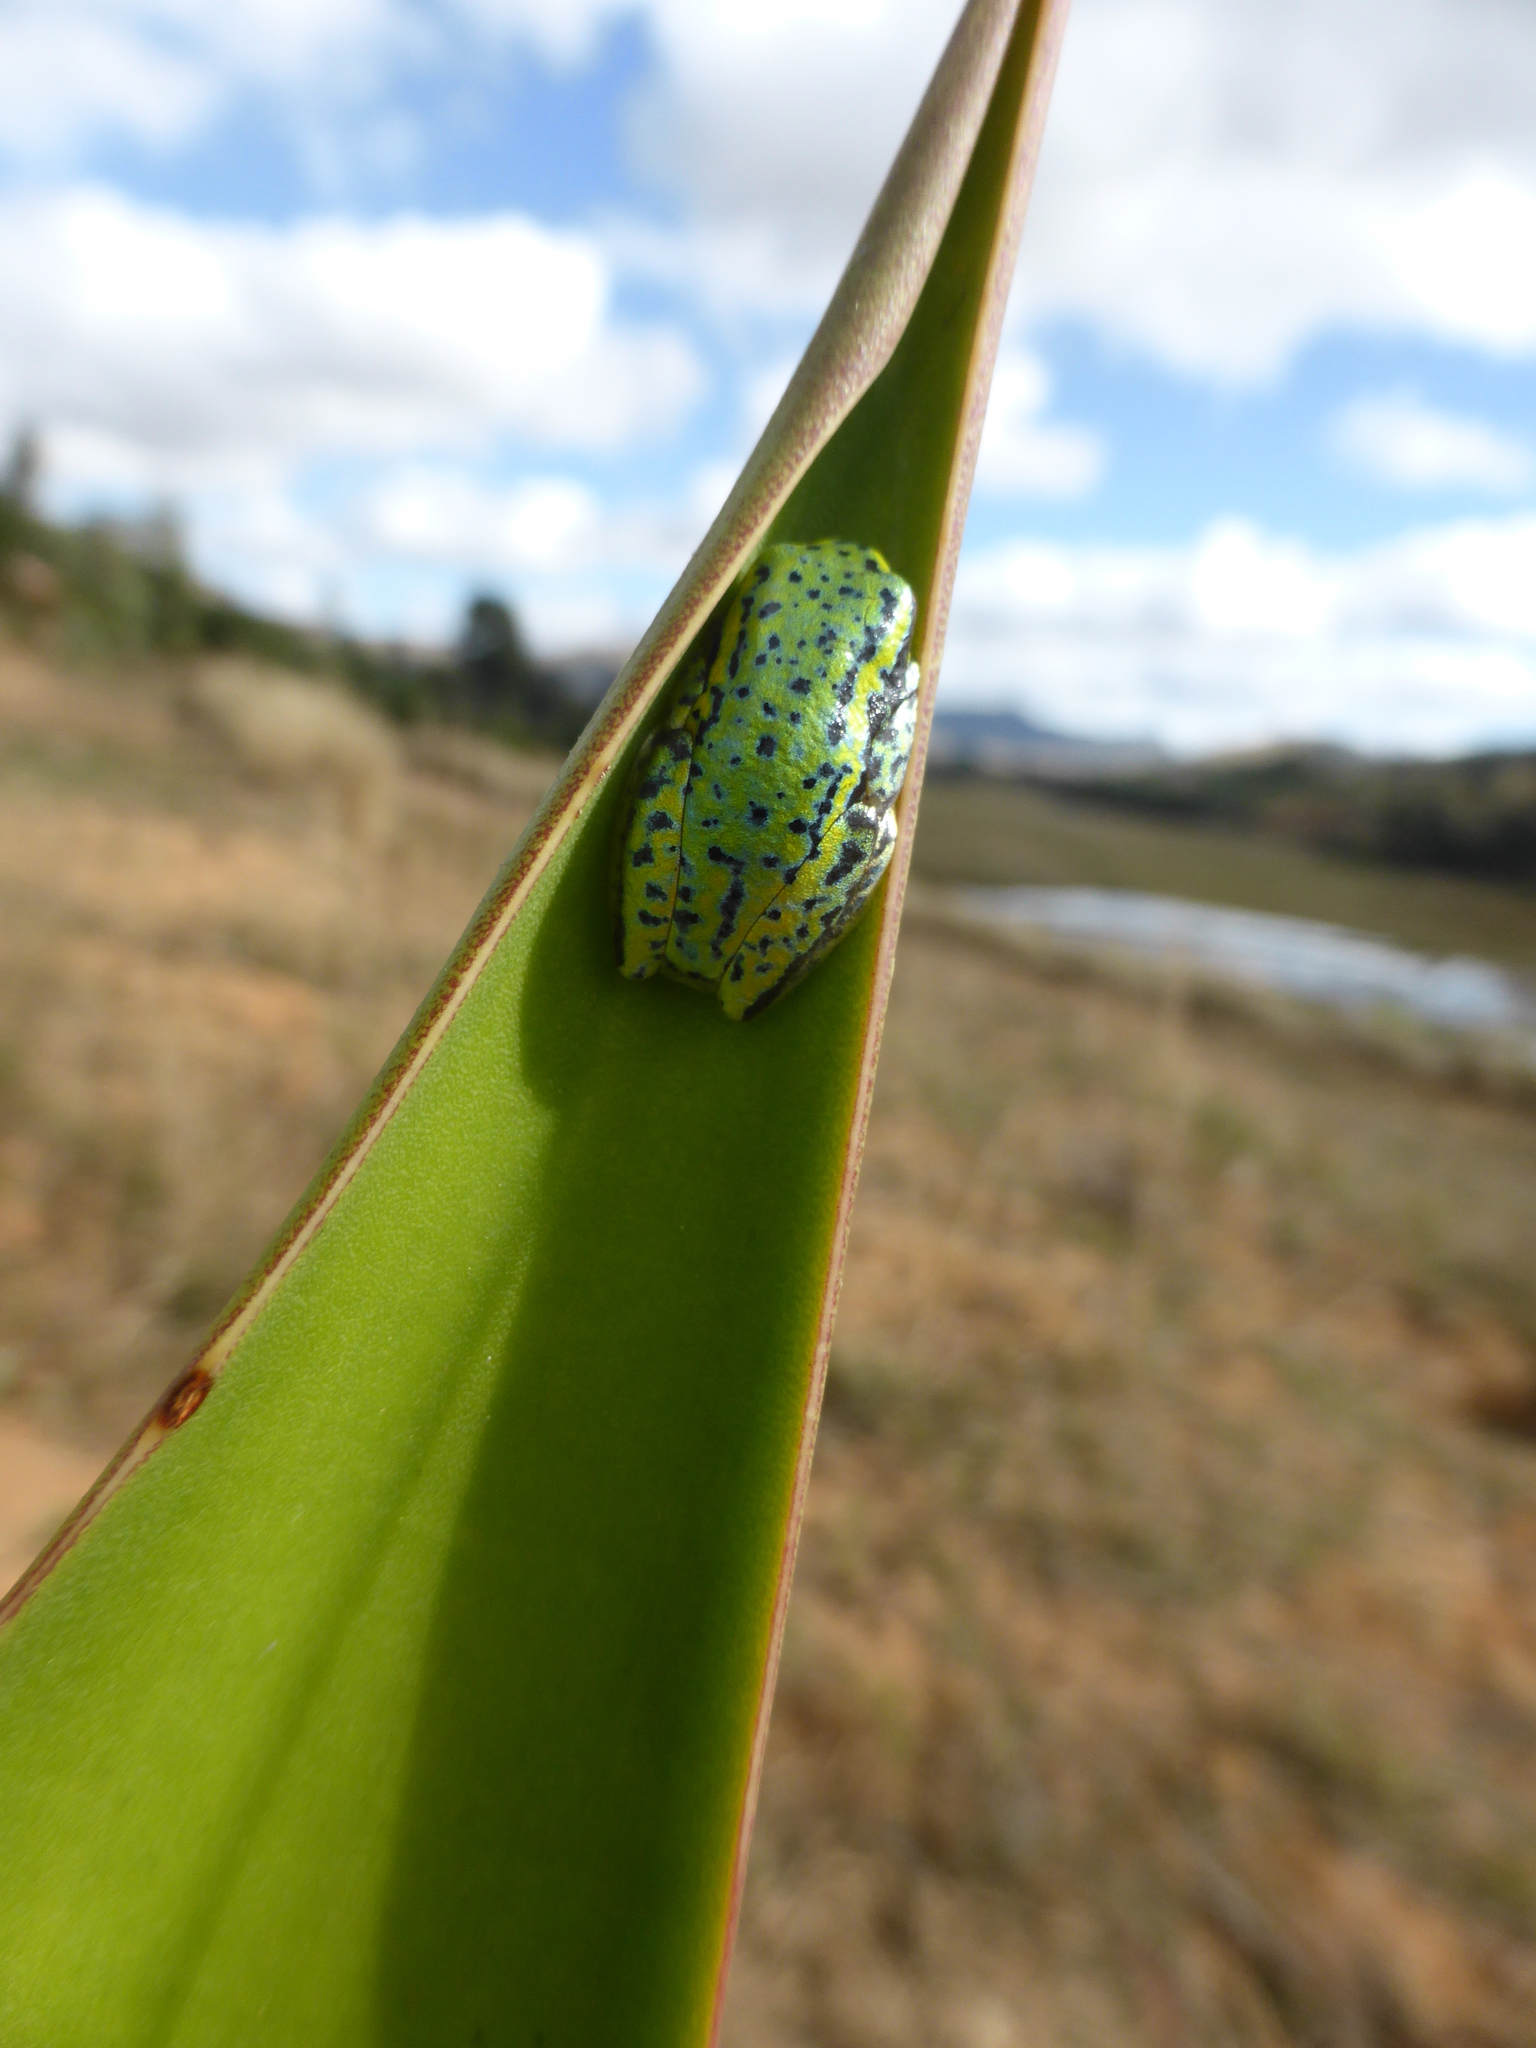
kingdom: Animalia
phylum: Chordata
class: Amphibia
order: Anura
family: Hyperoliidae
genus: Heterixalus
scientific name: Heterixalus betsileo
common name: Betsileo reed frog
